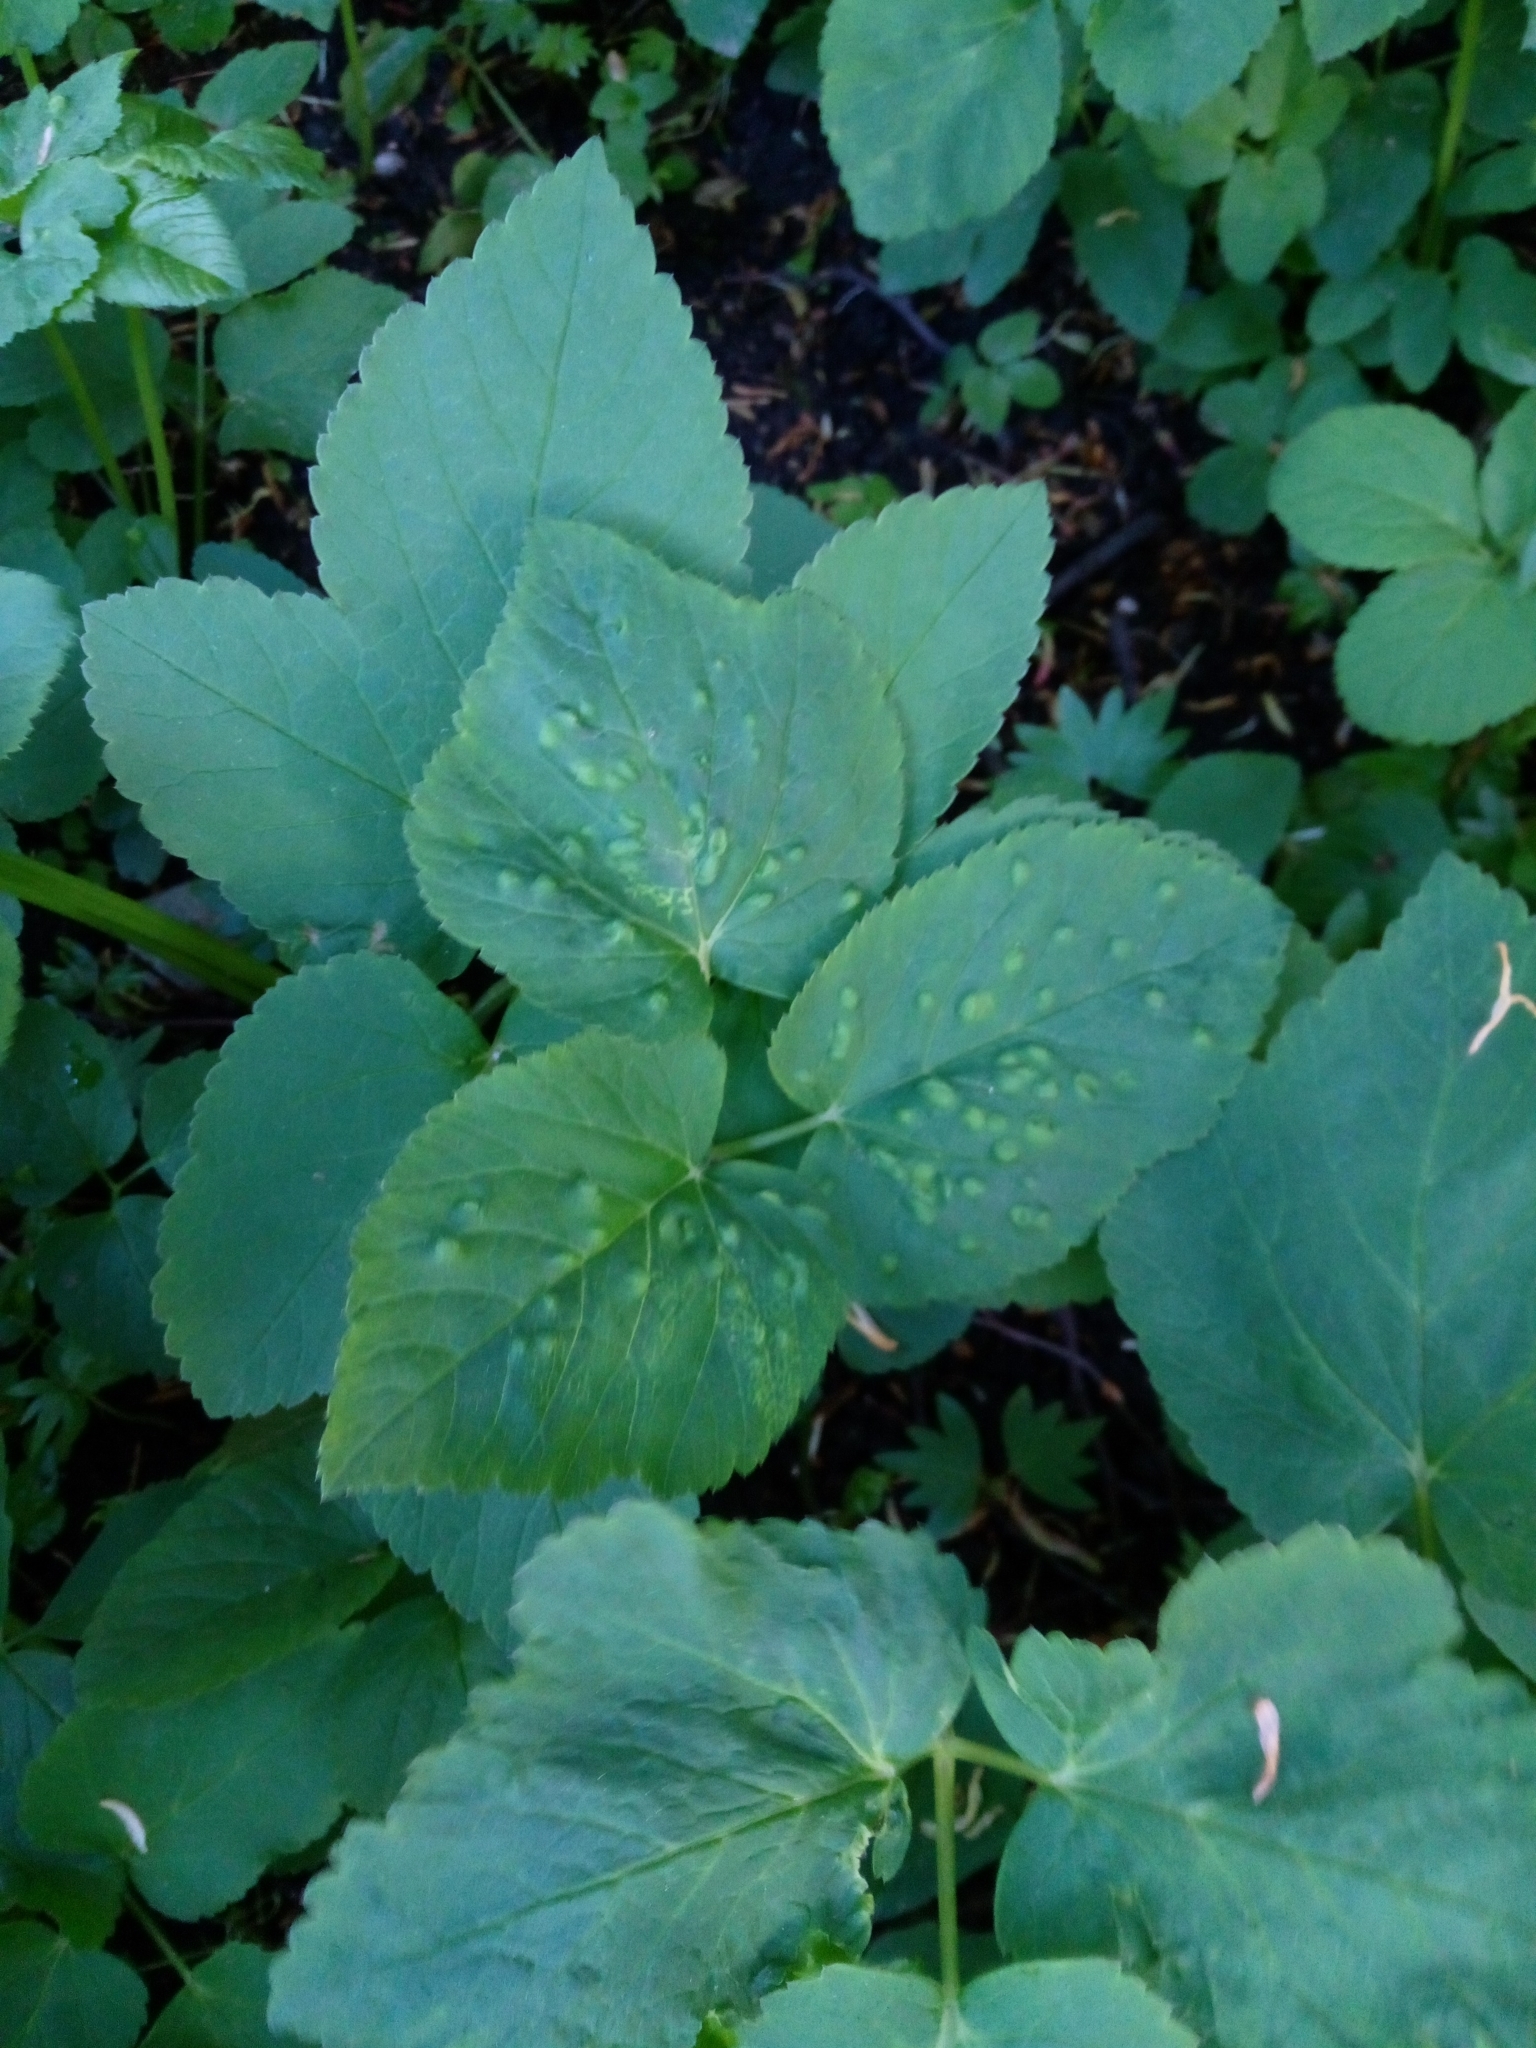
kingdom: Animalia
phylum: Arthropoda
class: Insecta
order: Hemiptera
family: Triozidae
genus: Trioza
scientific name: Trioza flavipennis
